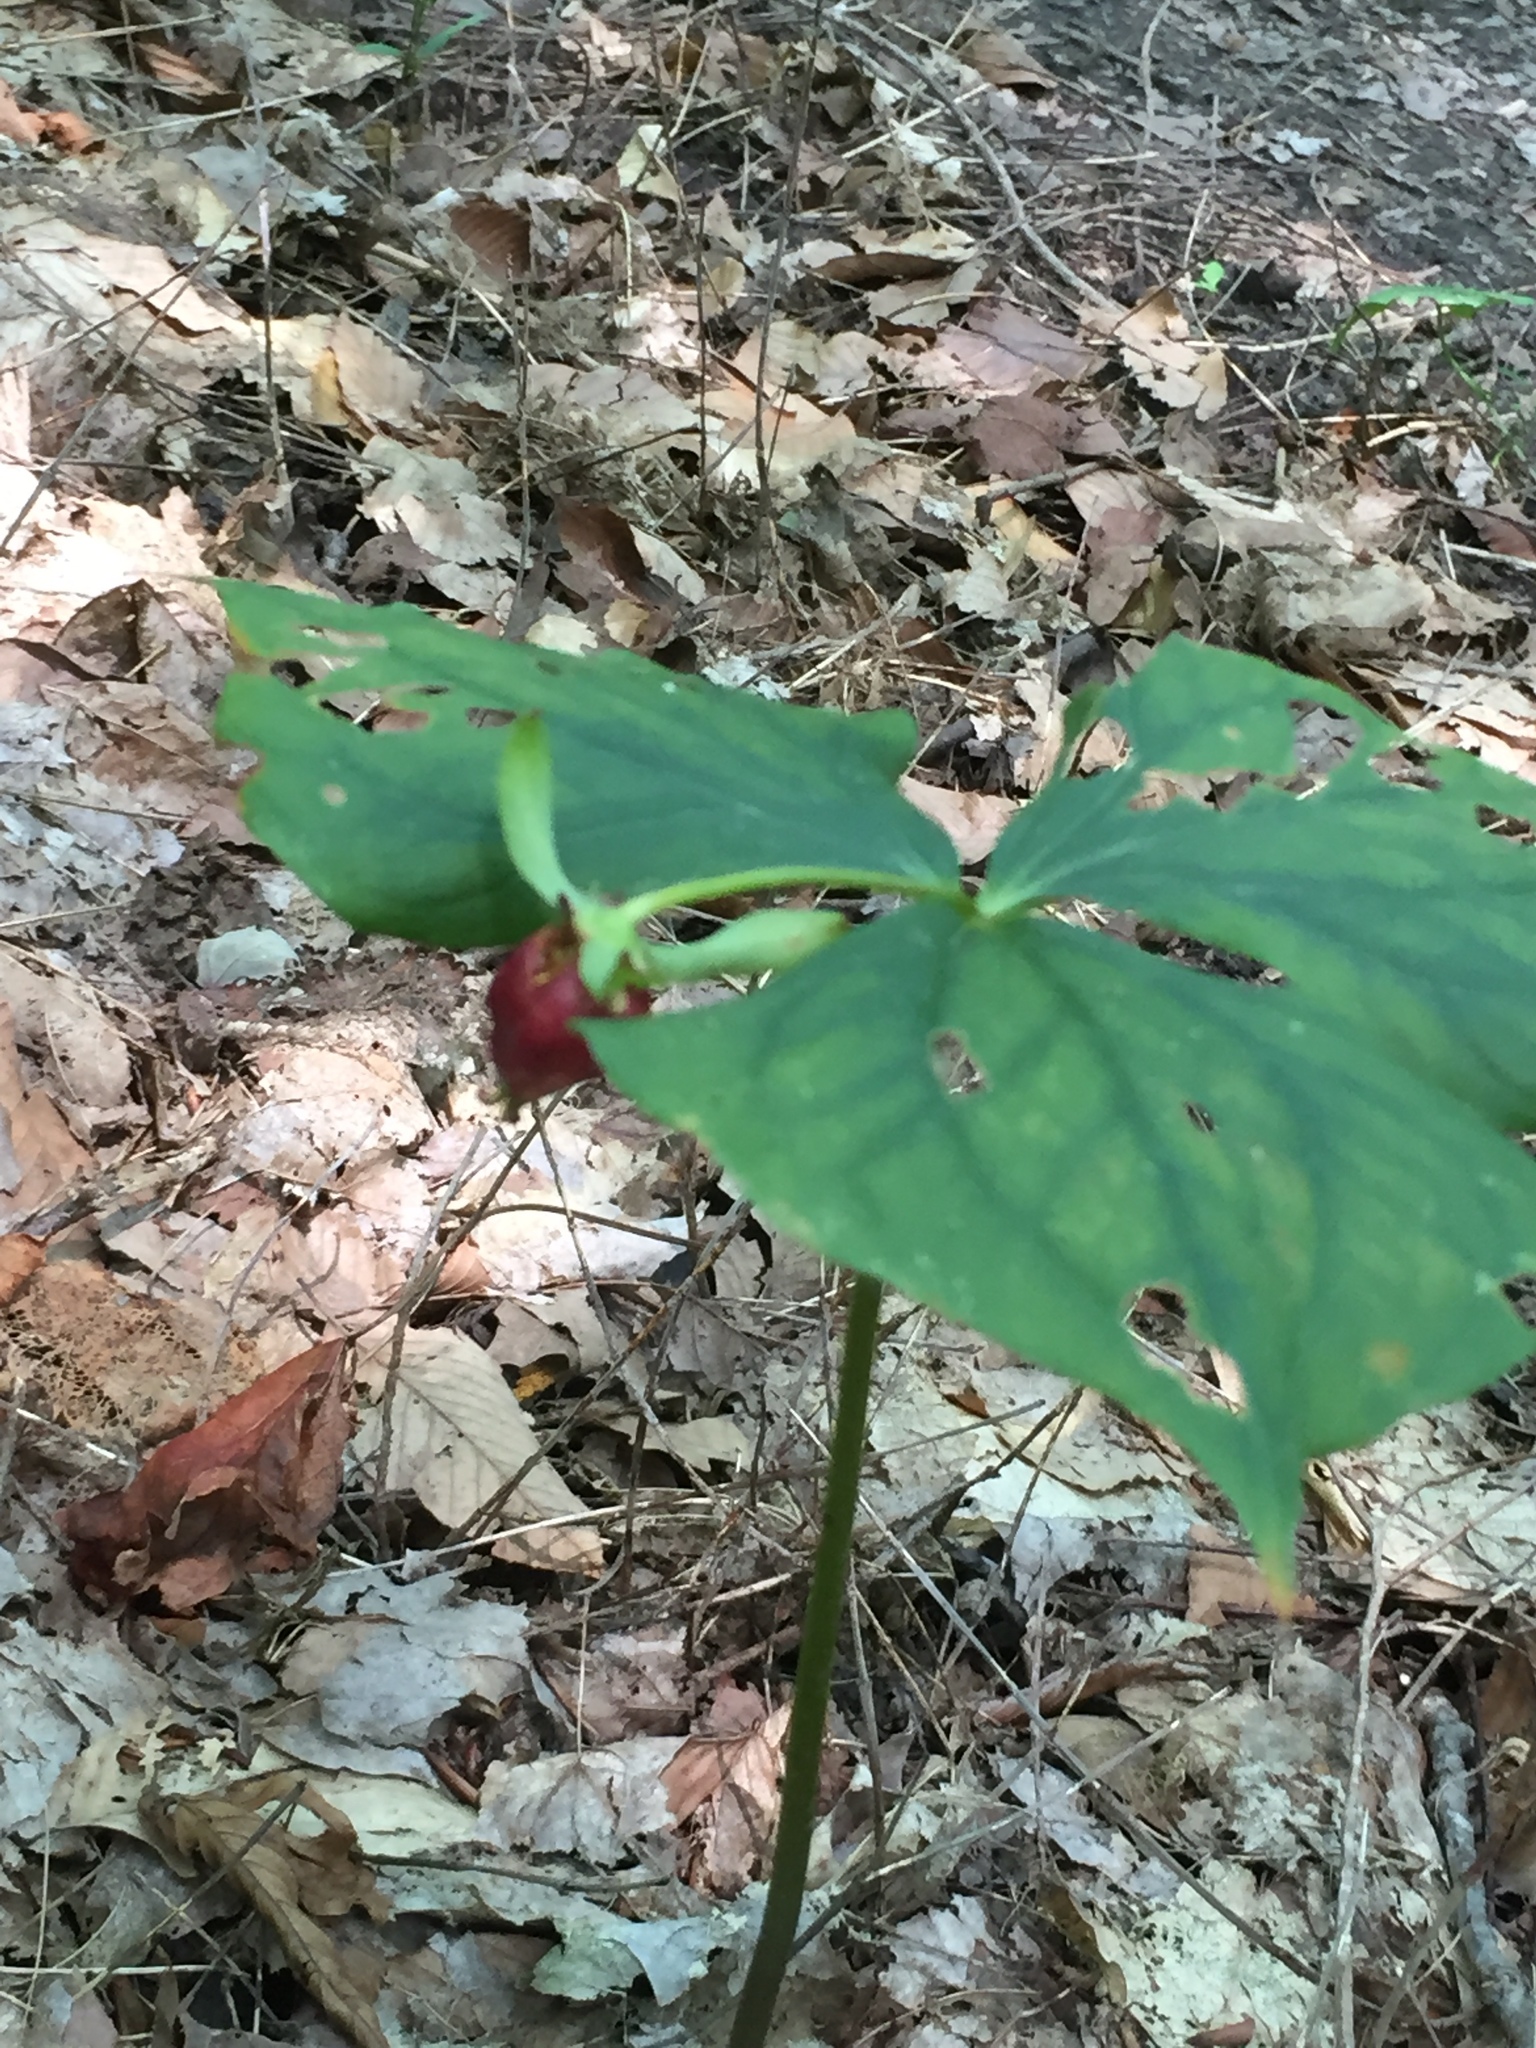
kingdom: Plantae
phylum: Tracheophyta
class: Liliopsida
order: Liliales
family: Melanthiaceae
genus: Trillium
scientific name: Trillium flexipes
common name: Drooping trillium
